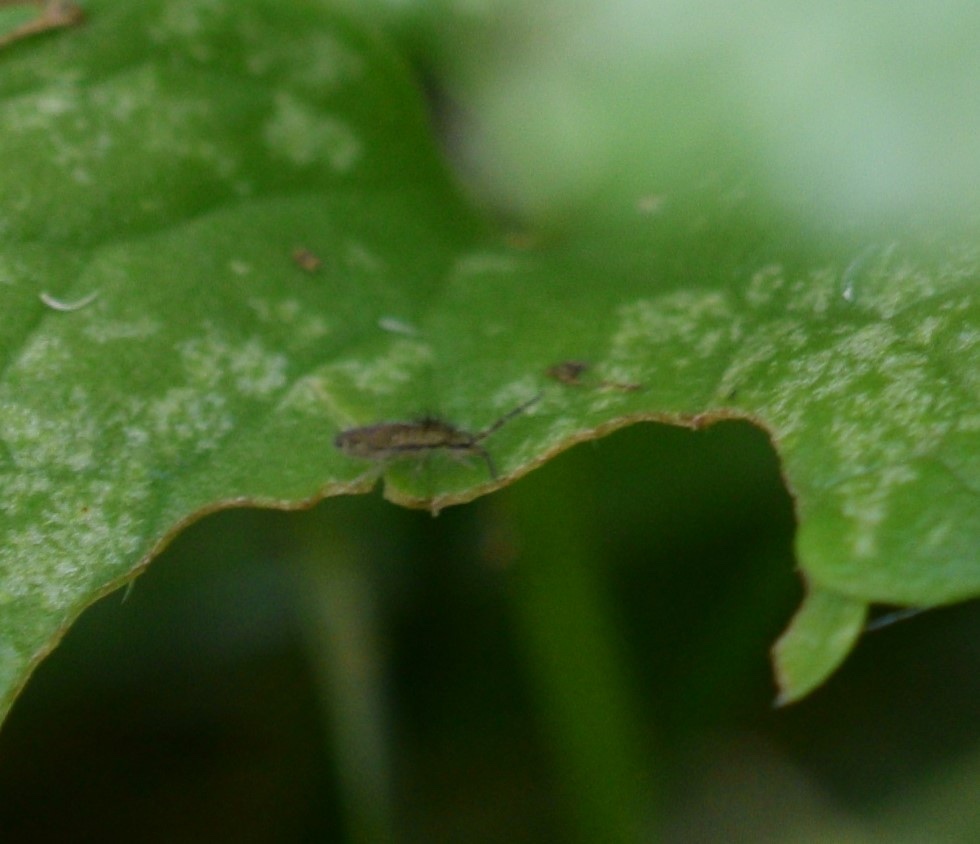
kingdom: Animalia
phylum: Arthropoda
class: Collembola
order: Entomobryomorpha
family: Entomobryidae
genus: Homidia
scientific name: Homidia socia
